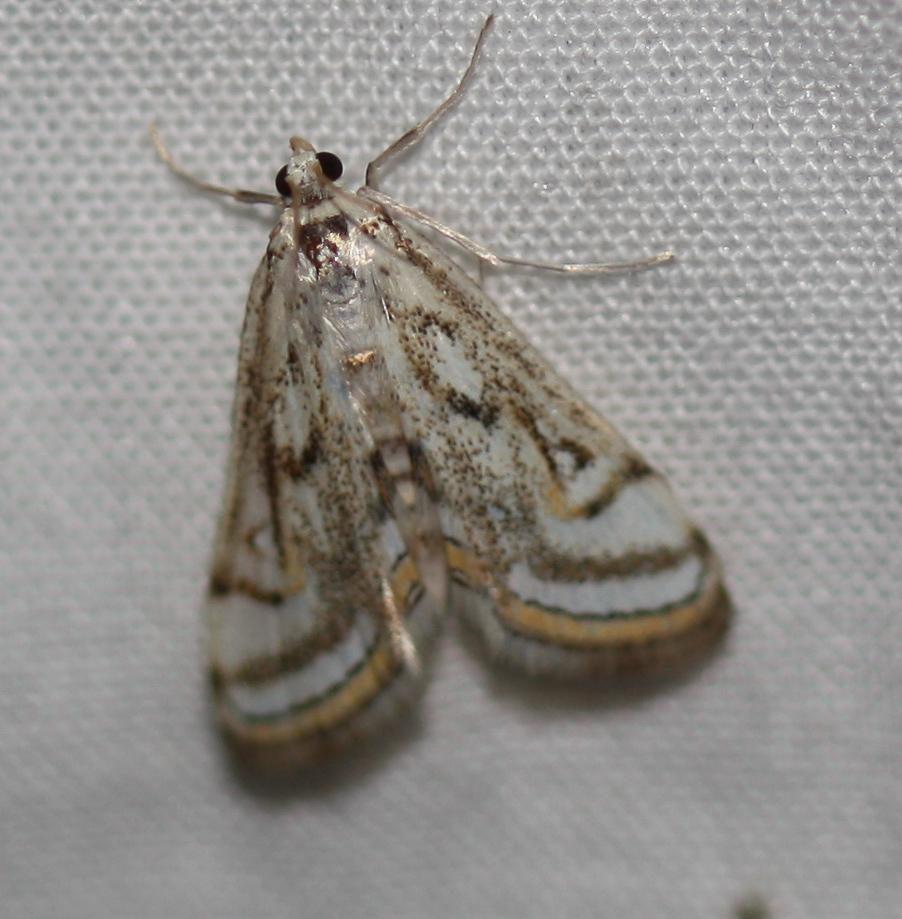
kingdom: Animalia
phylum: Arthropoda
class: Insecta
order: Lepidoptera
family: Crambidae
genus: Parapoynx
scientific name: Parapoynx badiusalis
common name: Chestnut-marked pondweed moth
